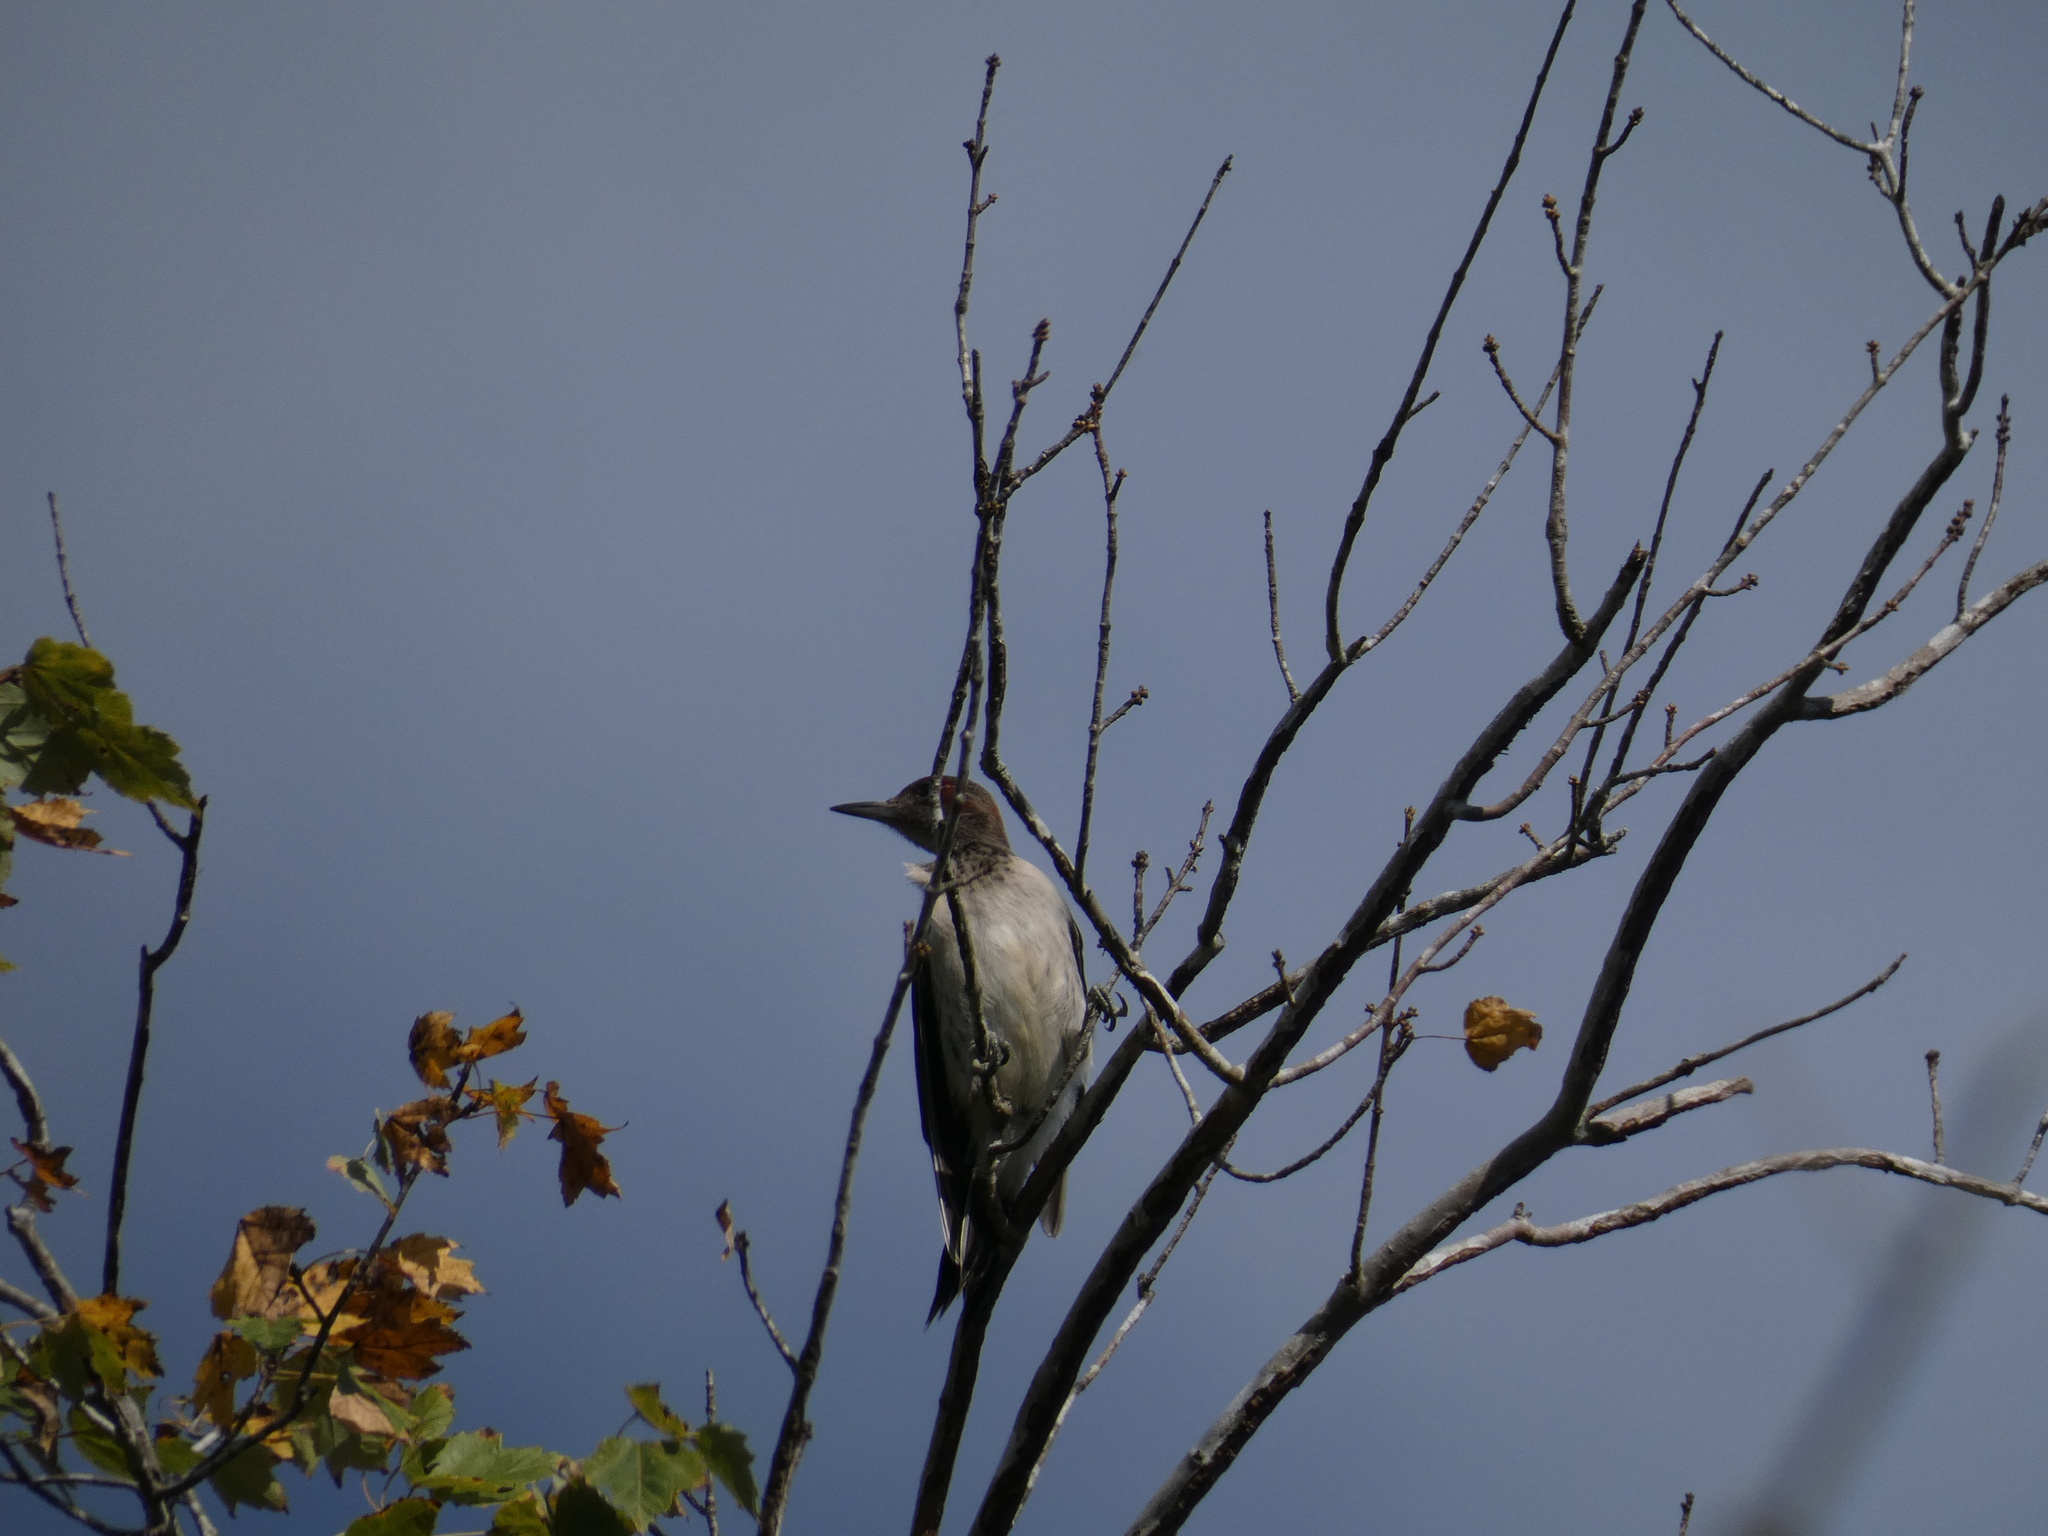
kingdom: Animalia
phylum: Chordata
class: Aves
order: Piciformes
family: Picidae
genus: Melanerpes
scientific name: Melanerpes erythrocephalus
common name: Red-headed woodpecker
